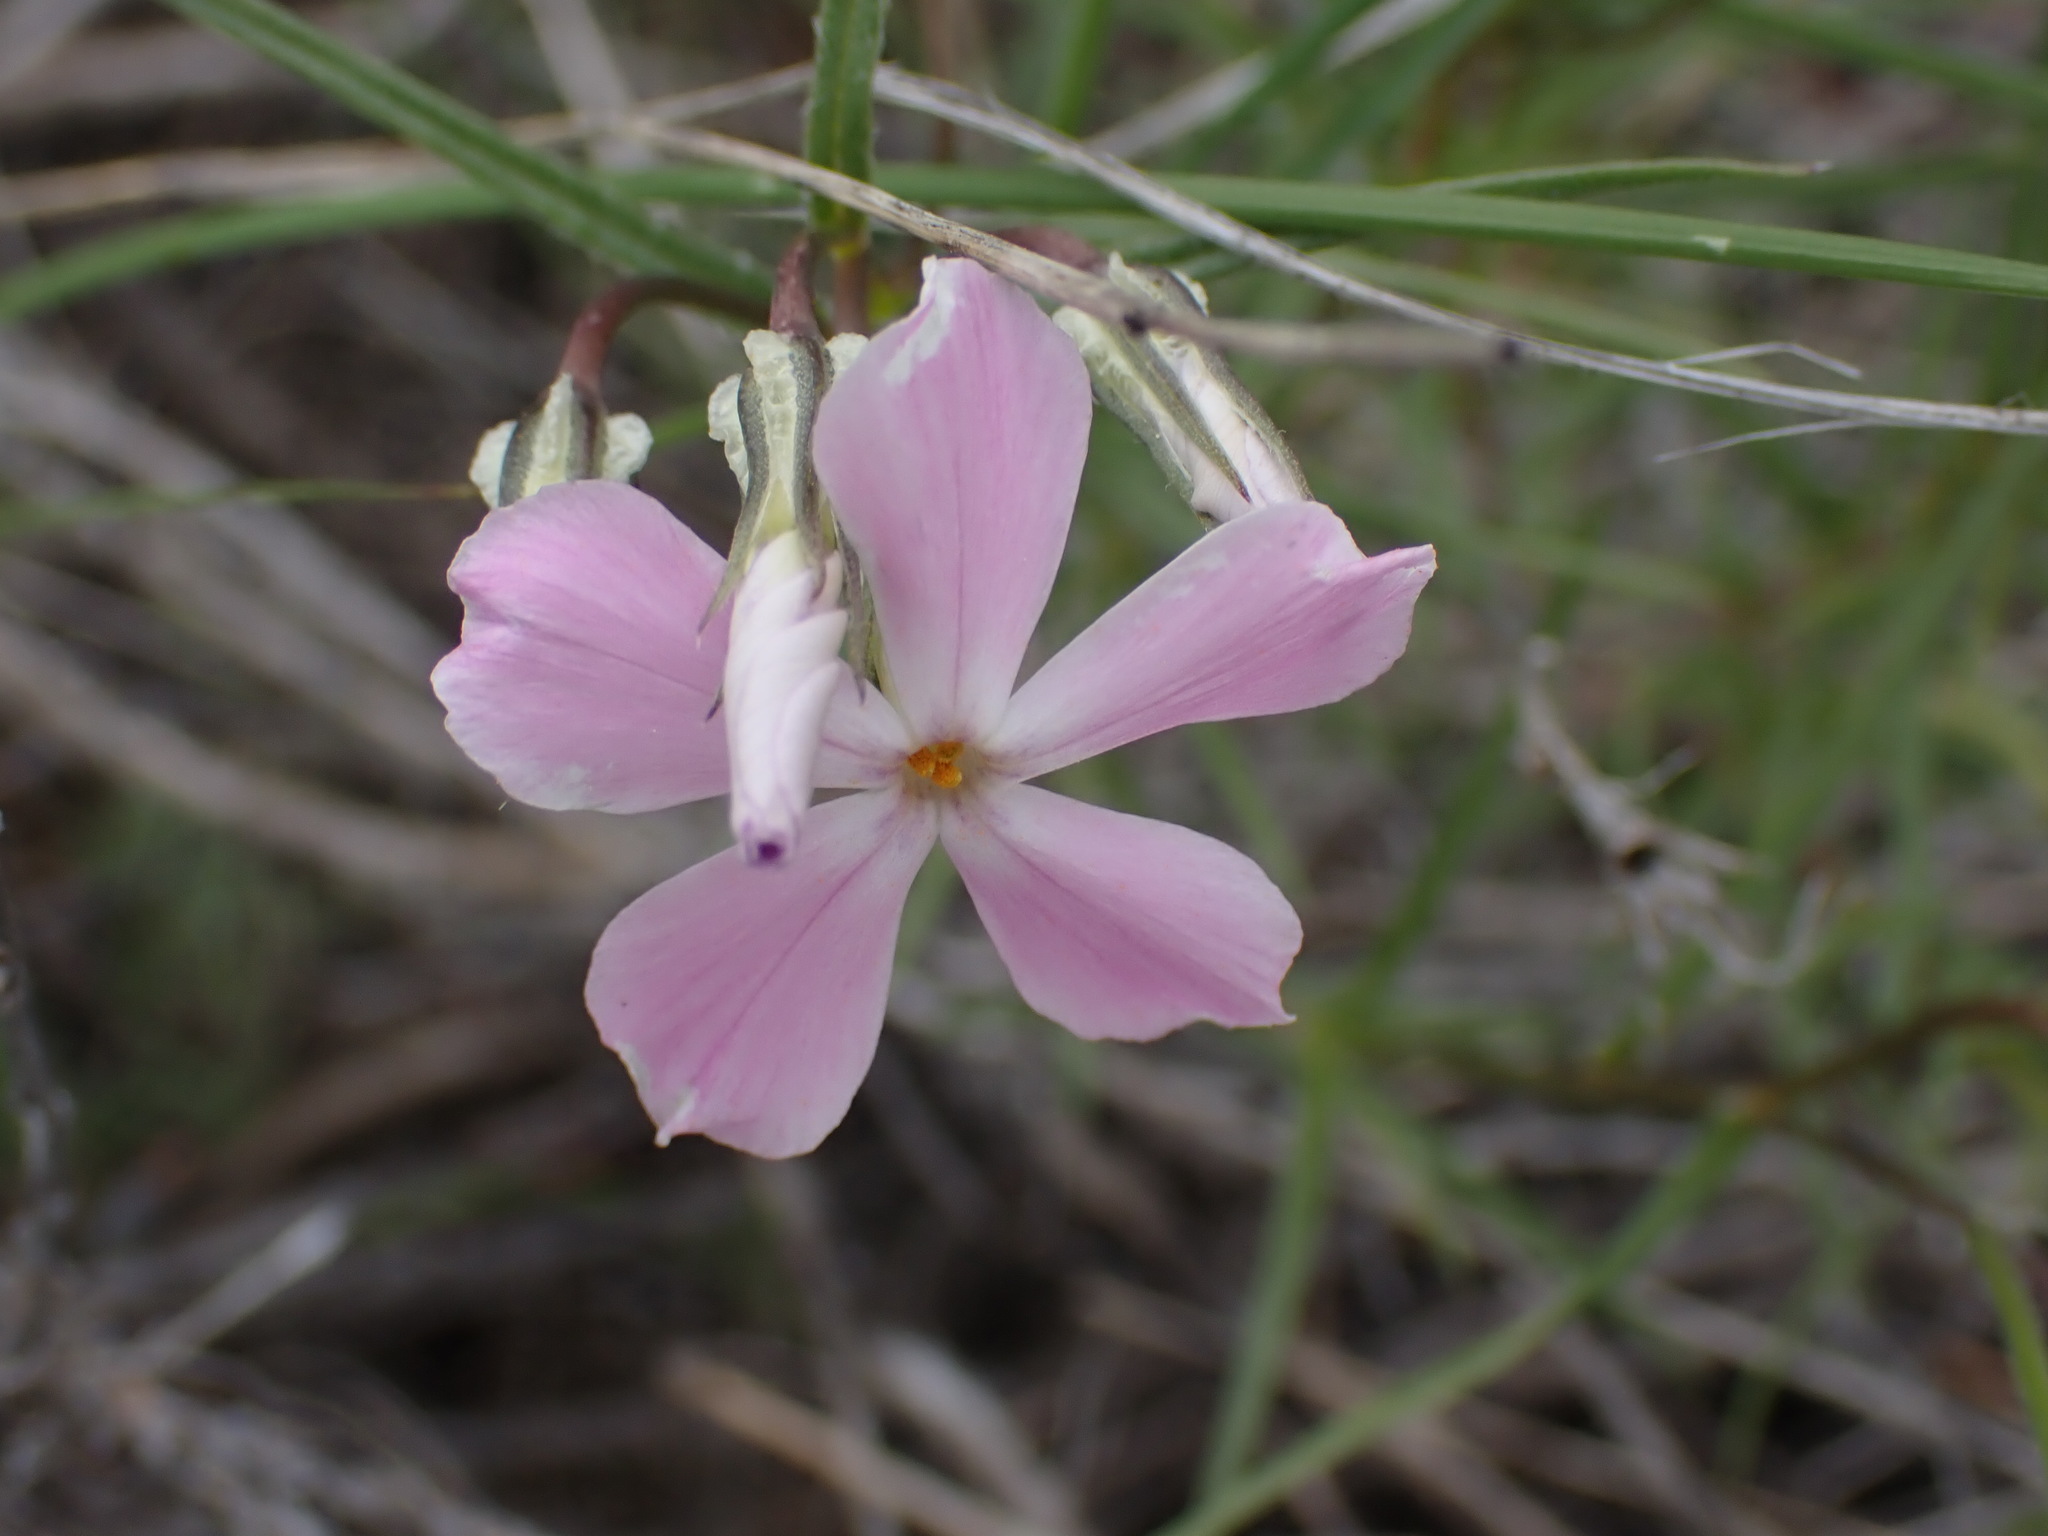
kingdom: Plantae
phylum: Tracheophyta
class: Magnoliopsida
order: Ericales
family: Polemoniaceae
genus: Phlox
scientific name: Phlox longifolia
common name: Longleaf phlox
